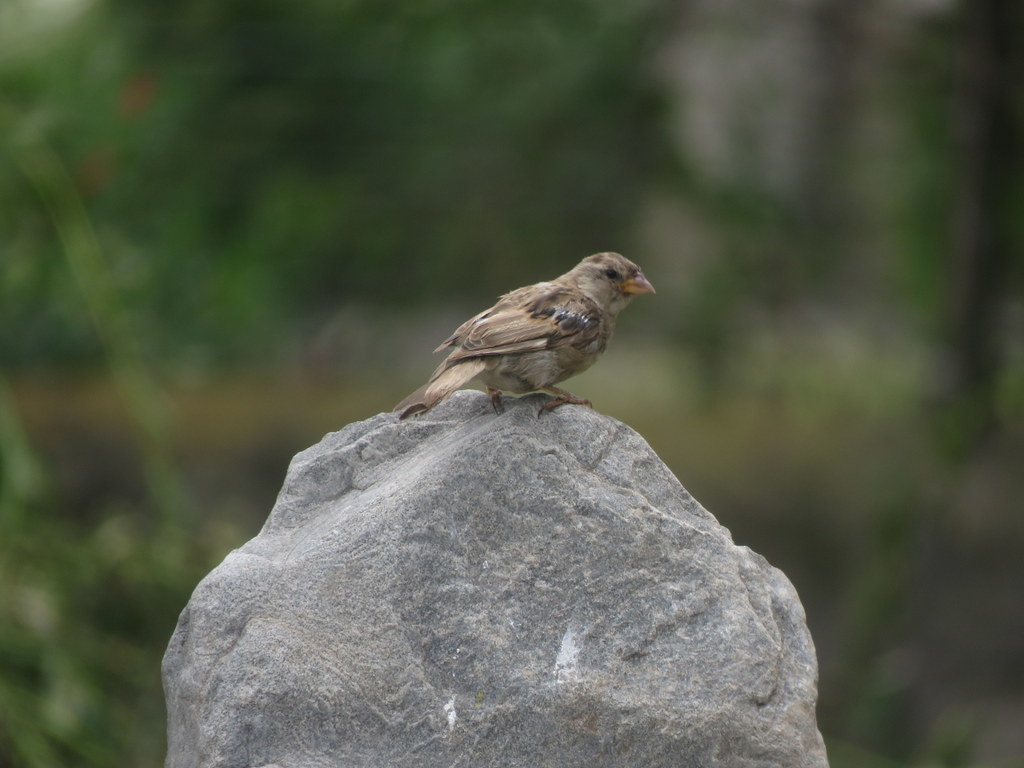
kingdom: Animalia
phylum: Chordata
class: Aves
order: Passeriformes
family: Passeridae
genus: Passer
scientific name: Passer domesticus
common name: House sparrow
